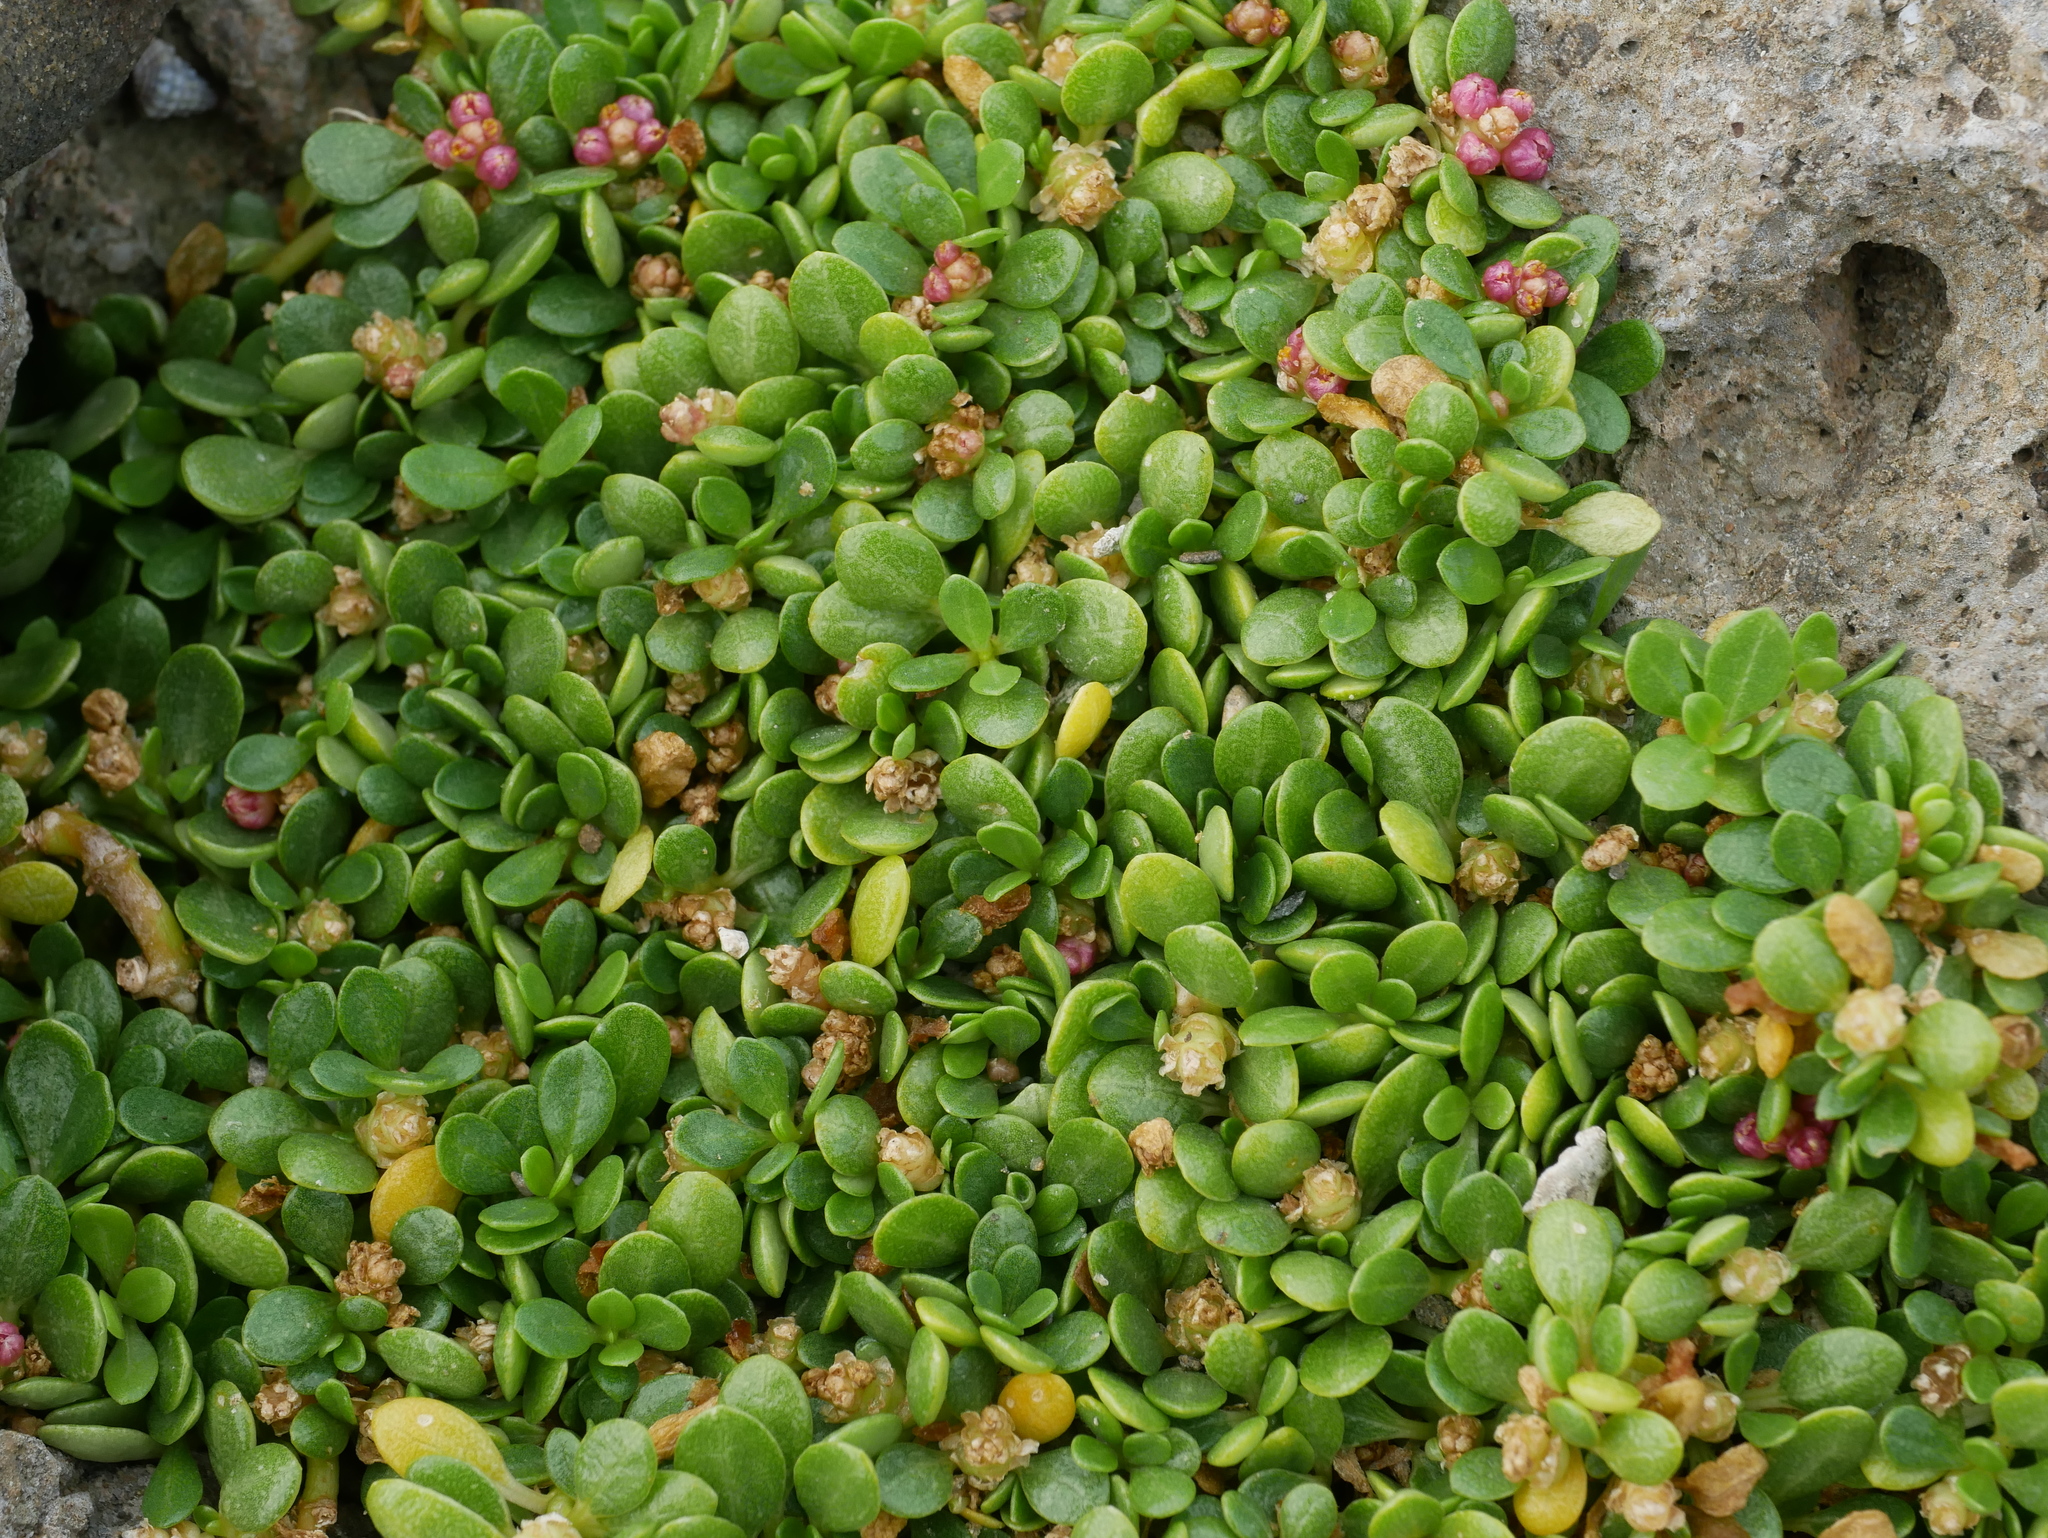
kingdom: Plantae
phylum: Tracheophyta
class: Magnoliopsida
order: Caryophyllales
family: Amaranthaceae
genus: Gomphrena
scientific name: Gomphrena wrightii
